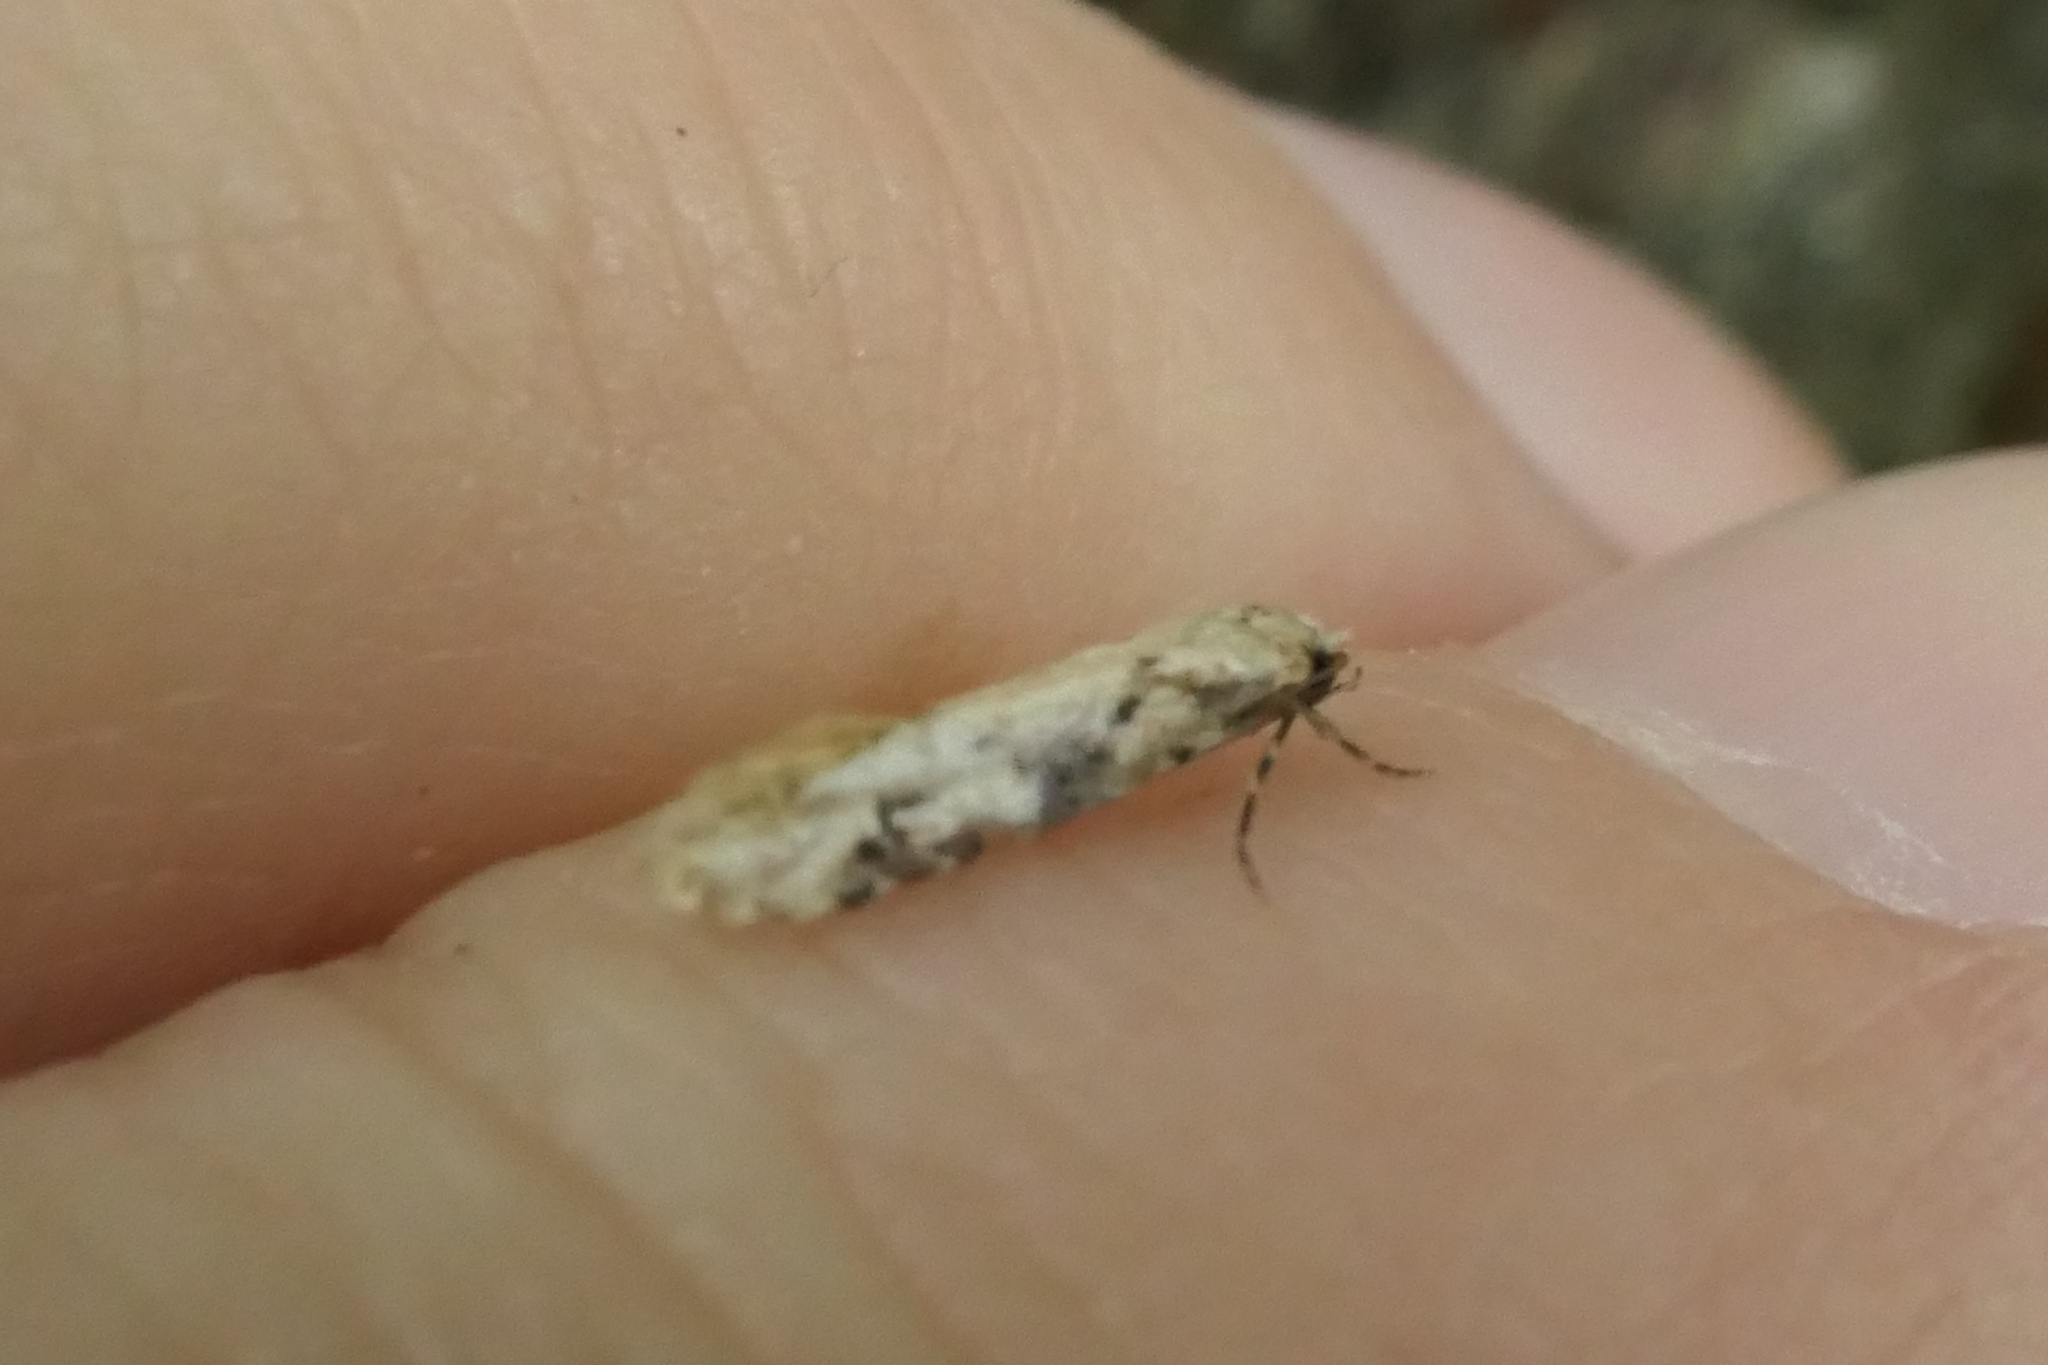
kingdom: Animalia
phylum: Arthropoda
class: Insecta
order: Lepidoptera
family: Tineidae
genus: Crypsitricha
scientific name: Crypsitricha mesotypa
